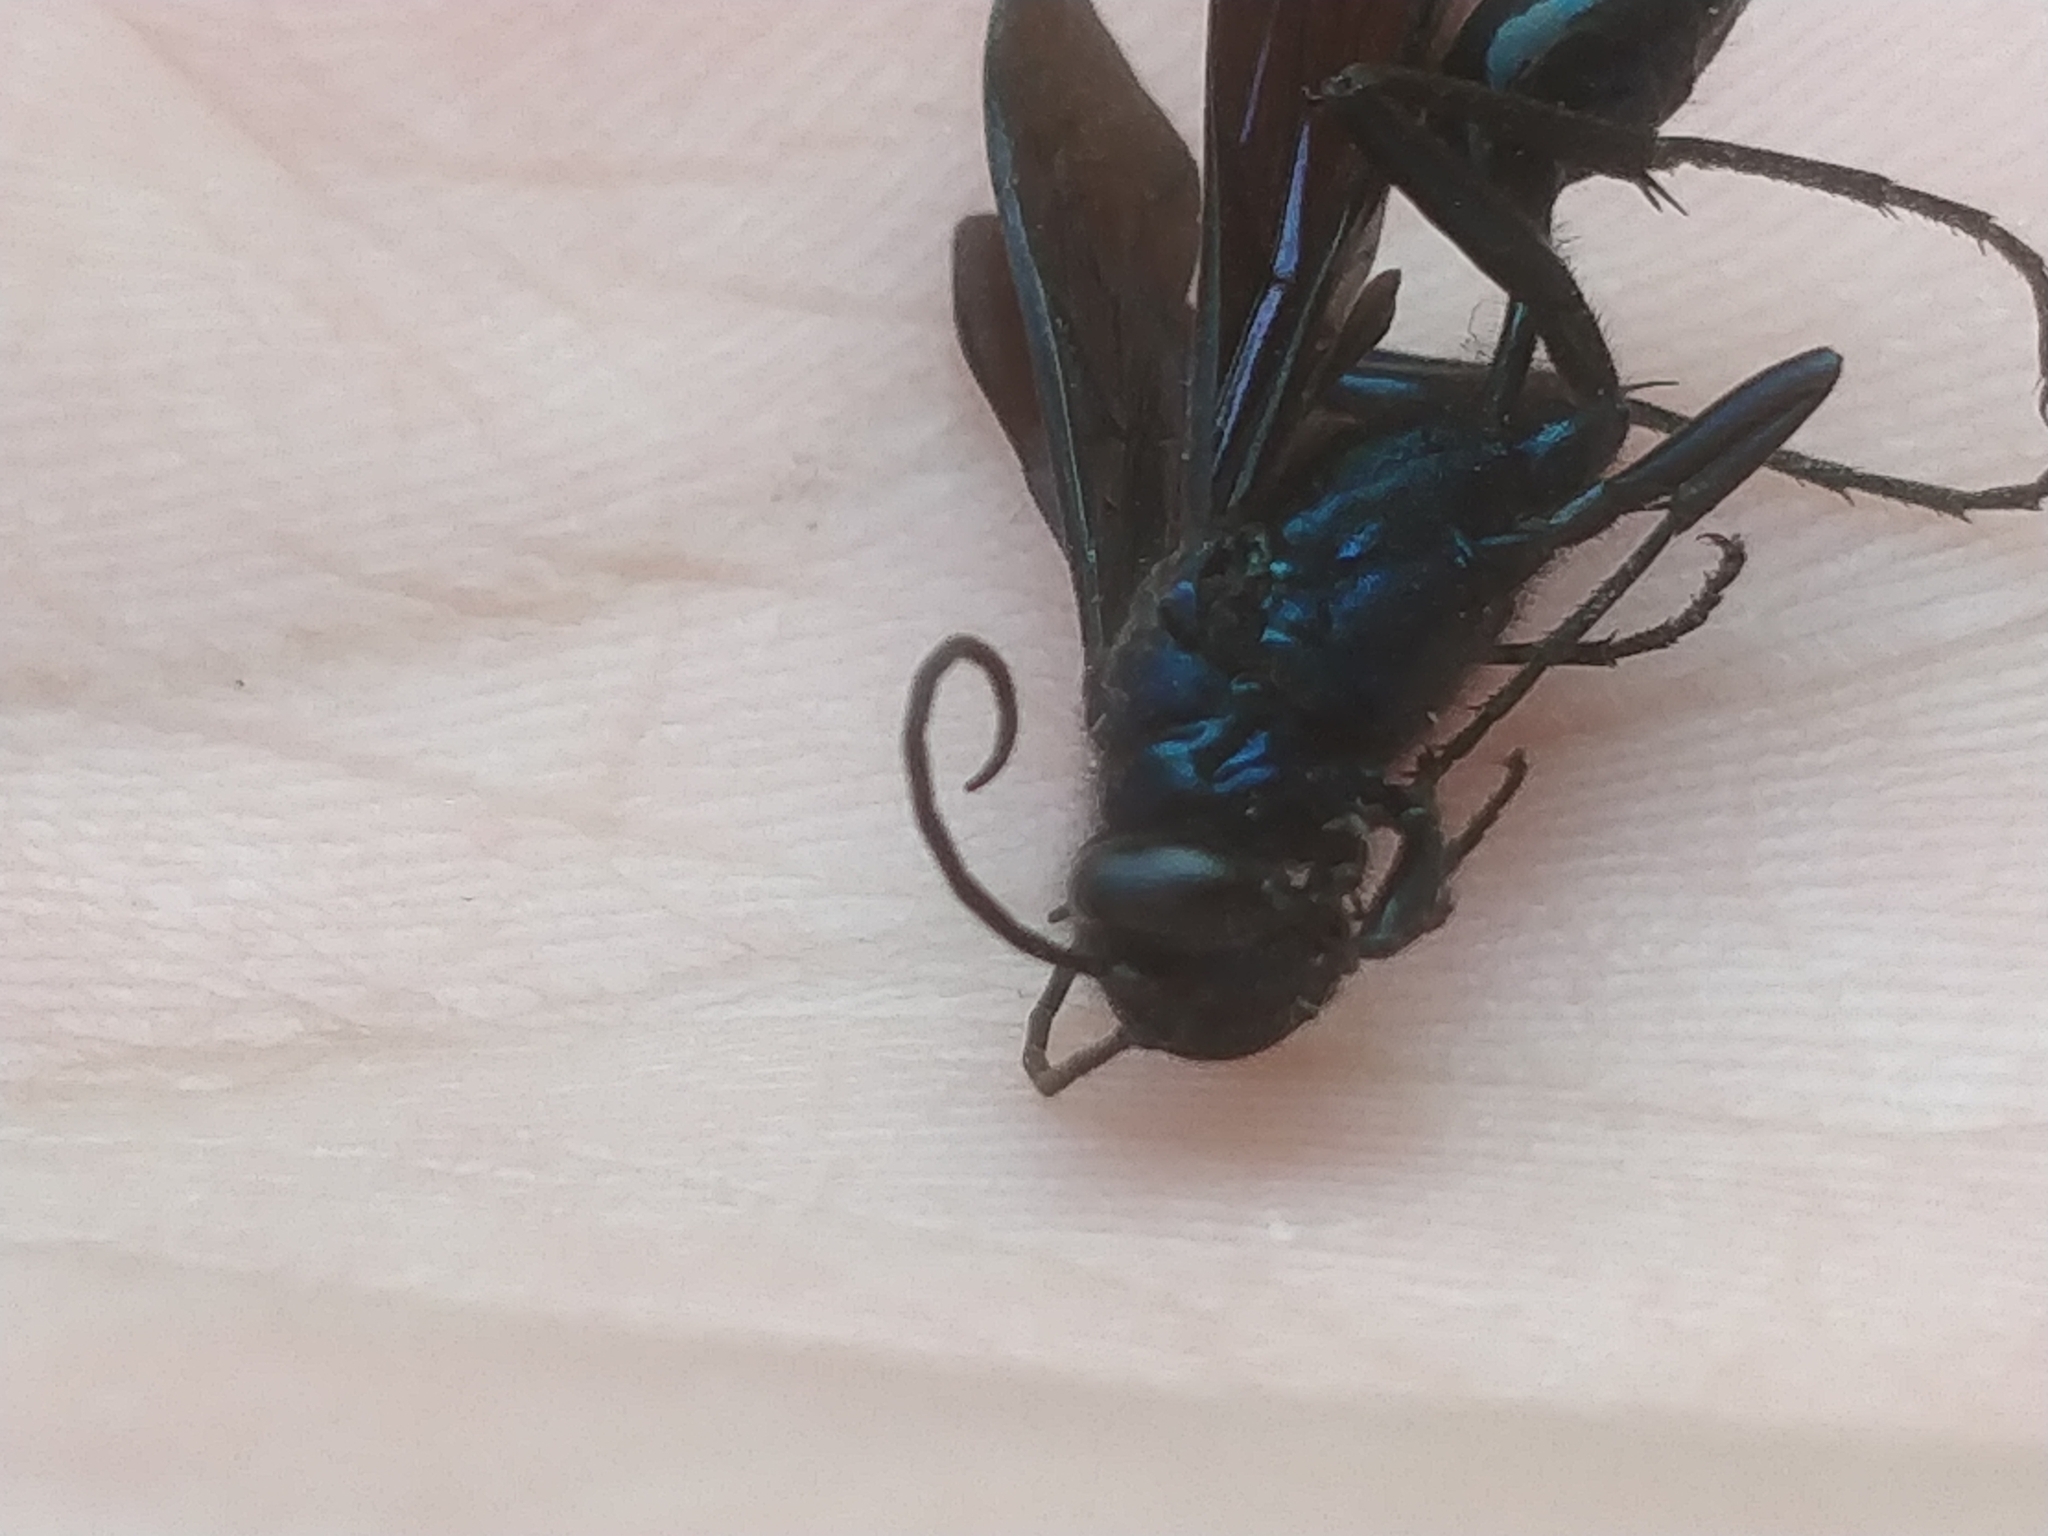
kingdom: Animalia
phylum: Arthropoda
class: Insecta
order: Hymenoptera
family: Sphecidae
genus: Chalybion
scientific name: Chalybion californicum
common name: Mud dauber
